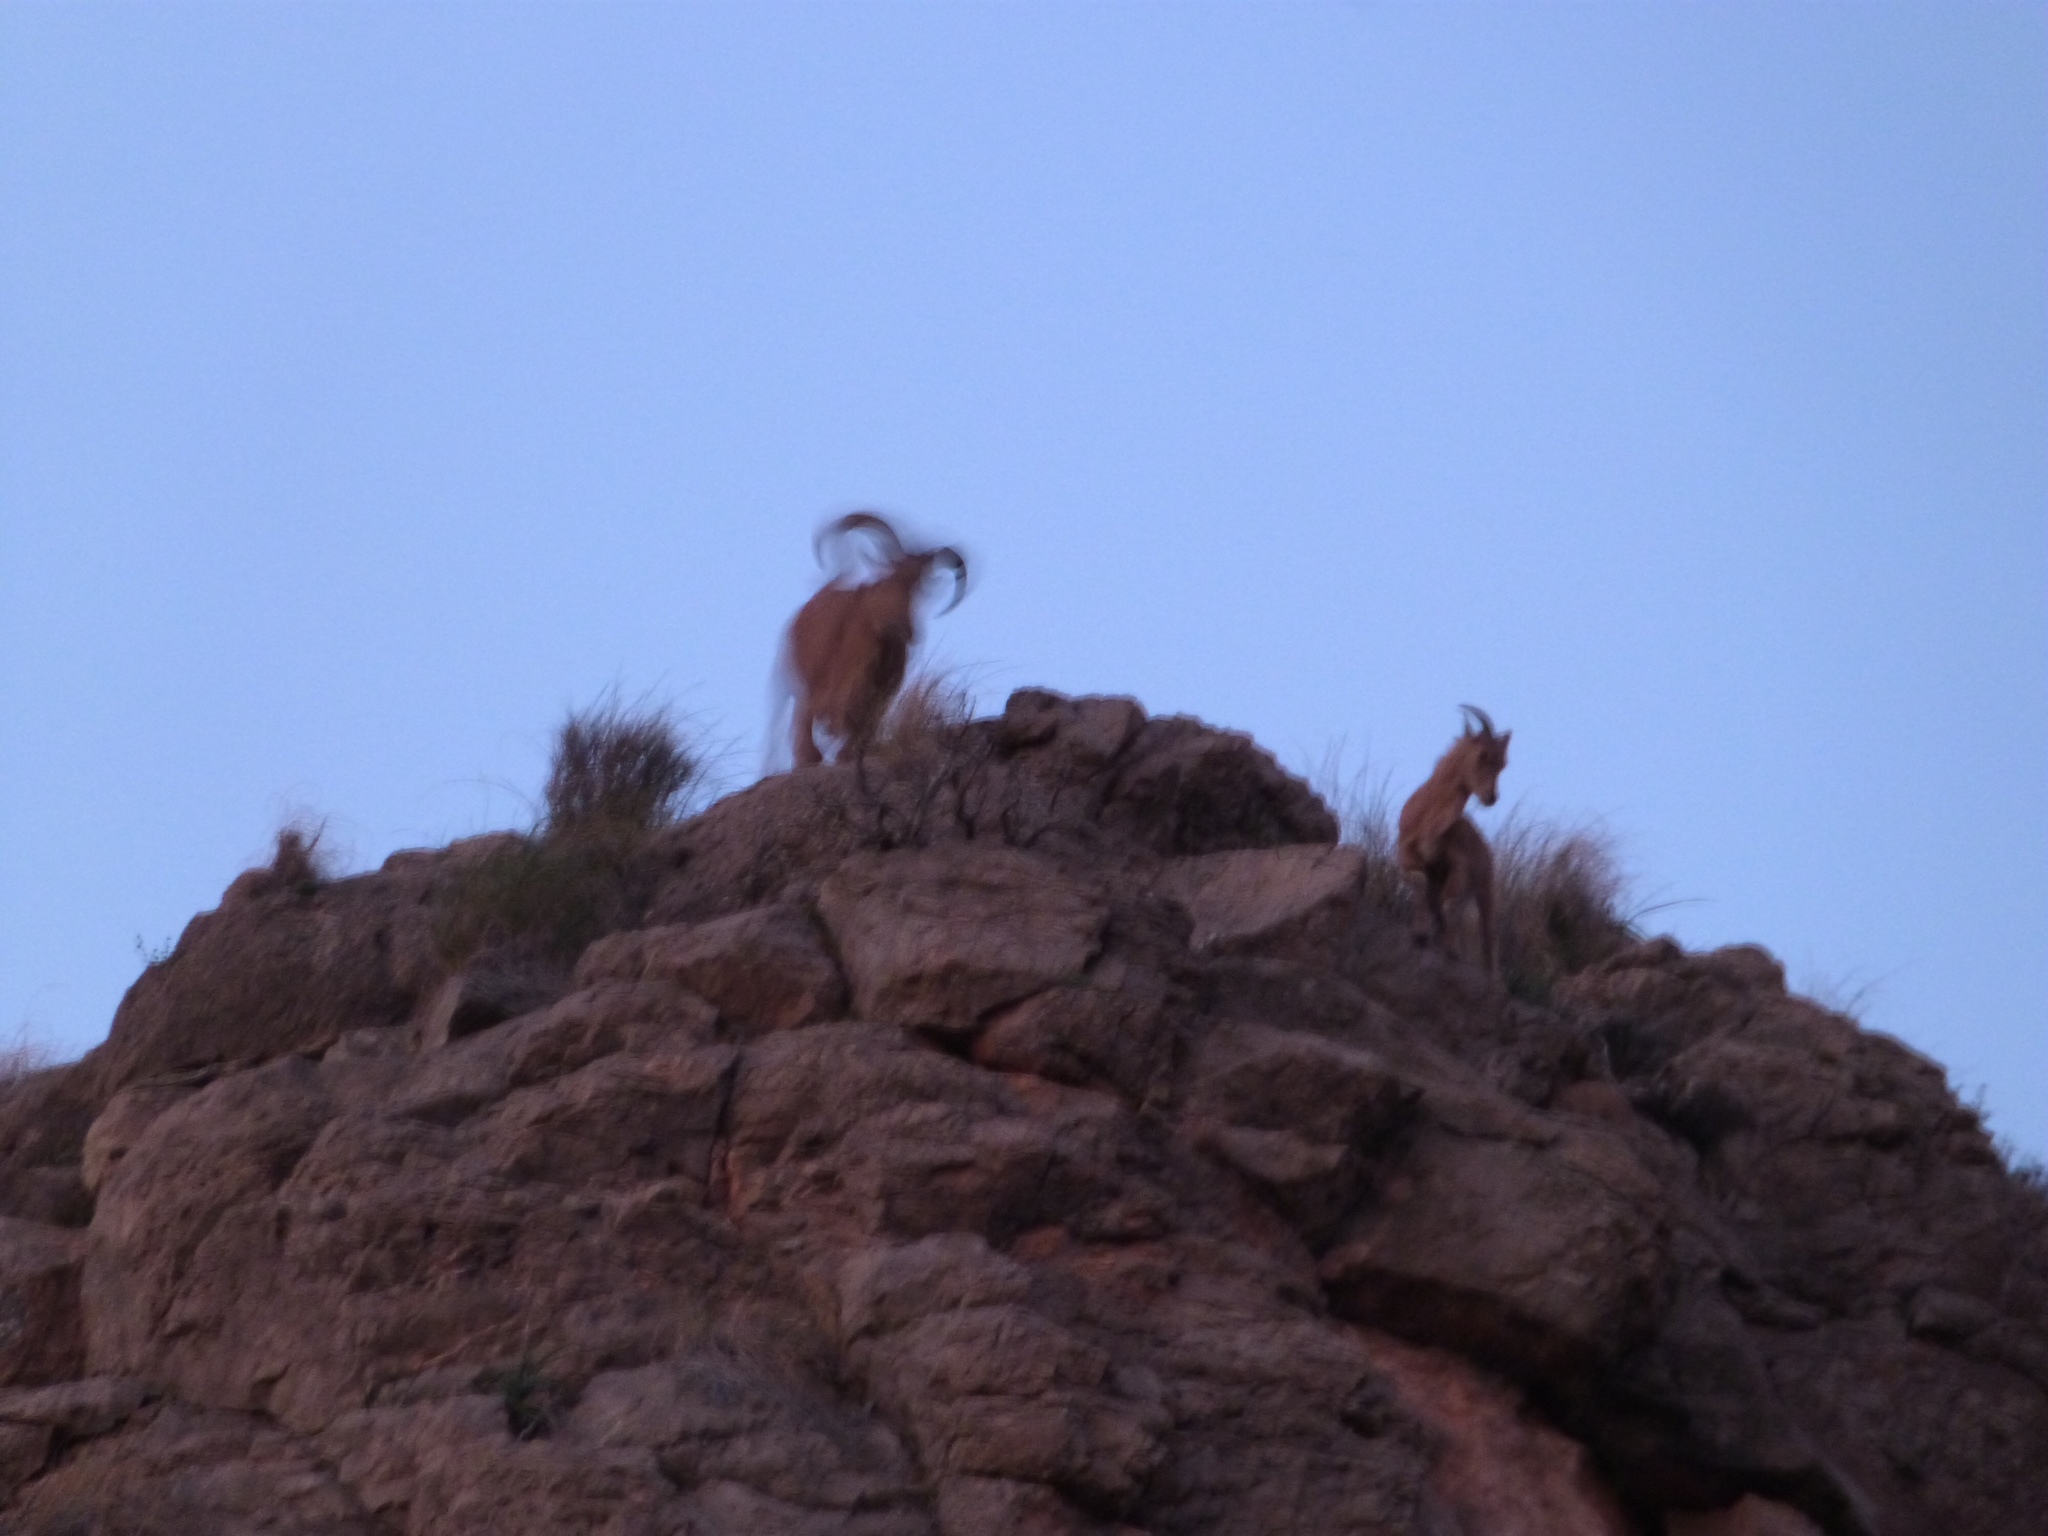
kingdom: Animalia
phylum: Chordata
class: Mammalia
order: Artiodactyla
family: Bovidae
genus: Ammotragus
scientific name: Ammotragus lervia
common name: Barbary sheep
